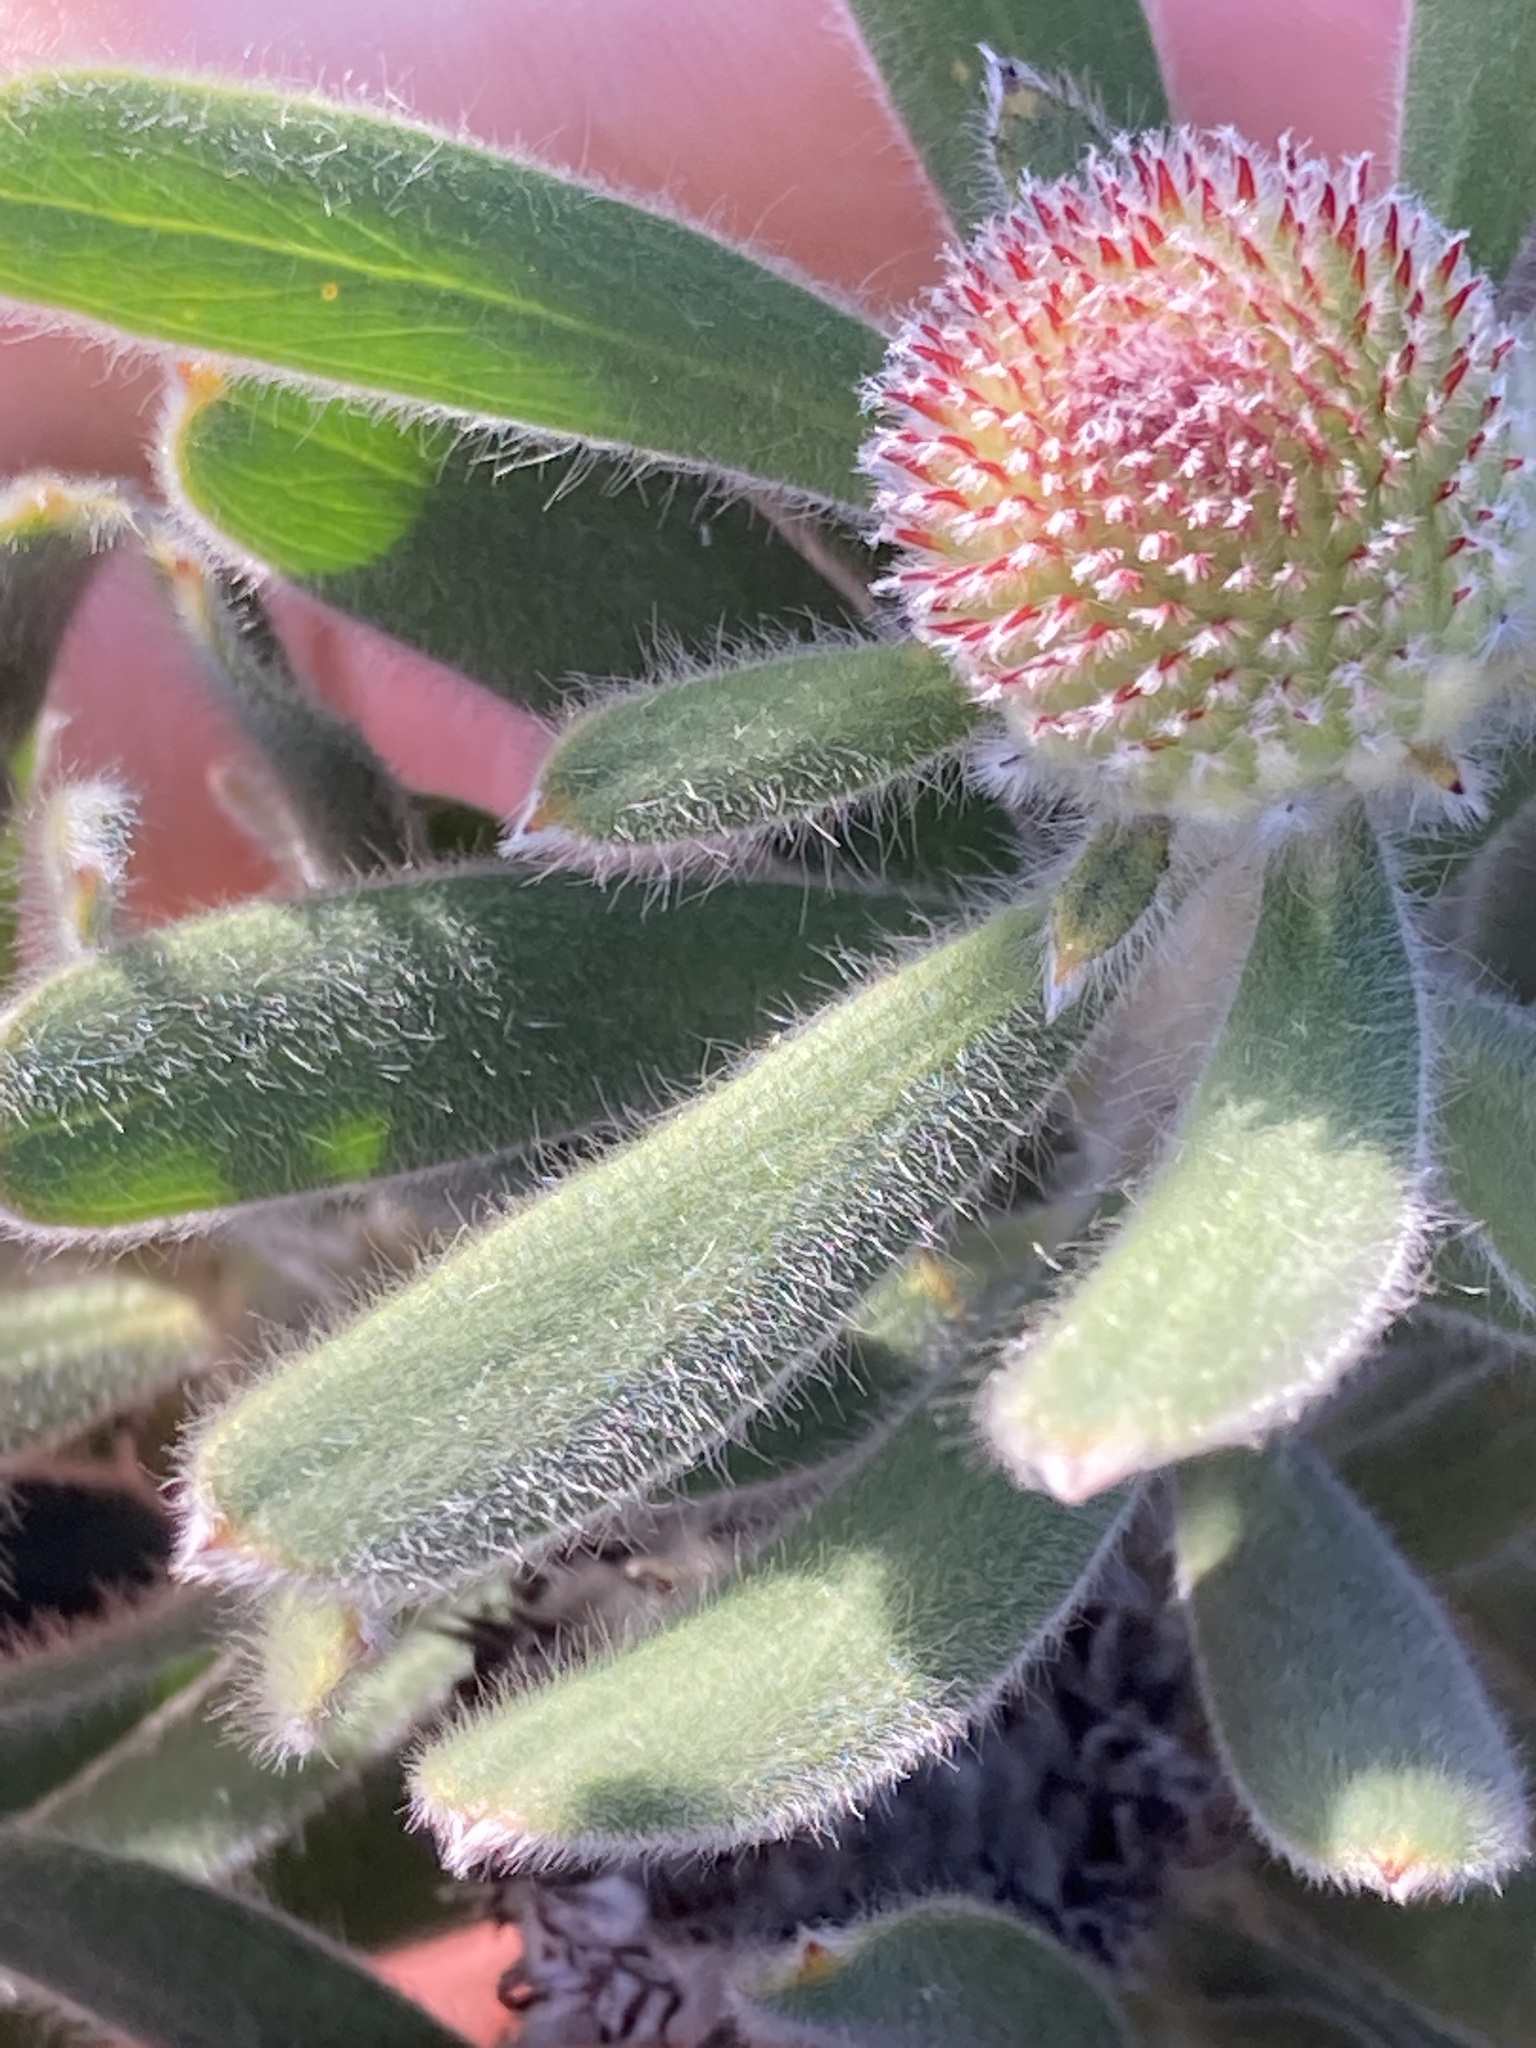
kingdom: Plantae
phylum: Tracheophyta
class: Magnoliopsida
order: Proteales
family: Proteaceae
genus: Isopogon
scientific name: Isopogon sphaerocephalus
